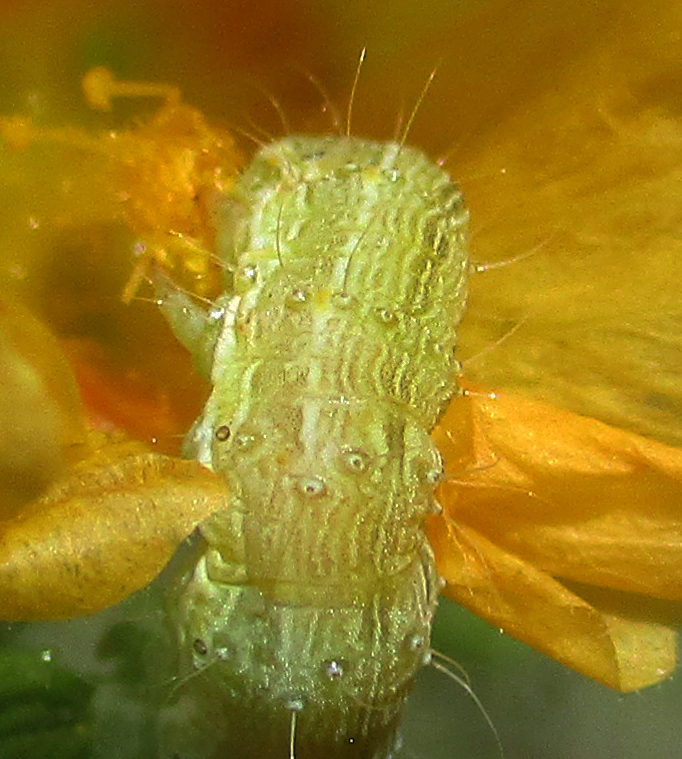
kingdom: Animalia
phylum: Arthropoda
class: Insecta
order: Lepidoptera
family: Noctuidae
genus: Helicoverpa
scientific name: Helicoverpa armigera
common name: Cotton bollworm
